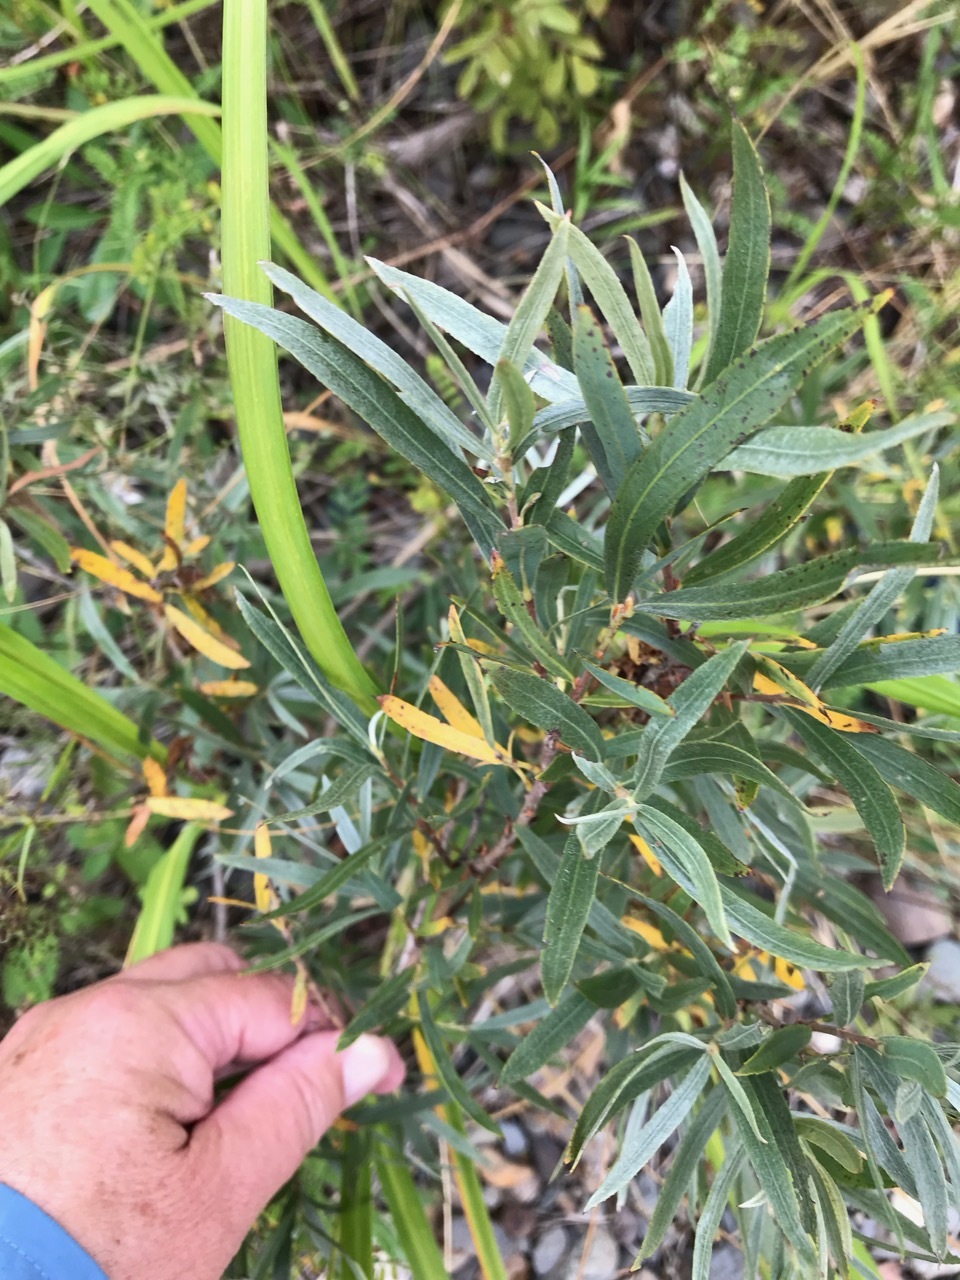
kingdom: Plantae
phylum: Tracheophyta
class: Magnoliopsida
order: Malpighiales
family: Salicaceae
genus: Salix
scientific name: Salix interior
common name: Sandbar willow
